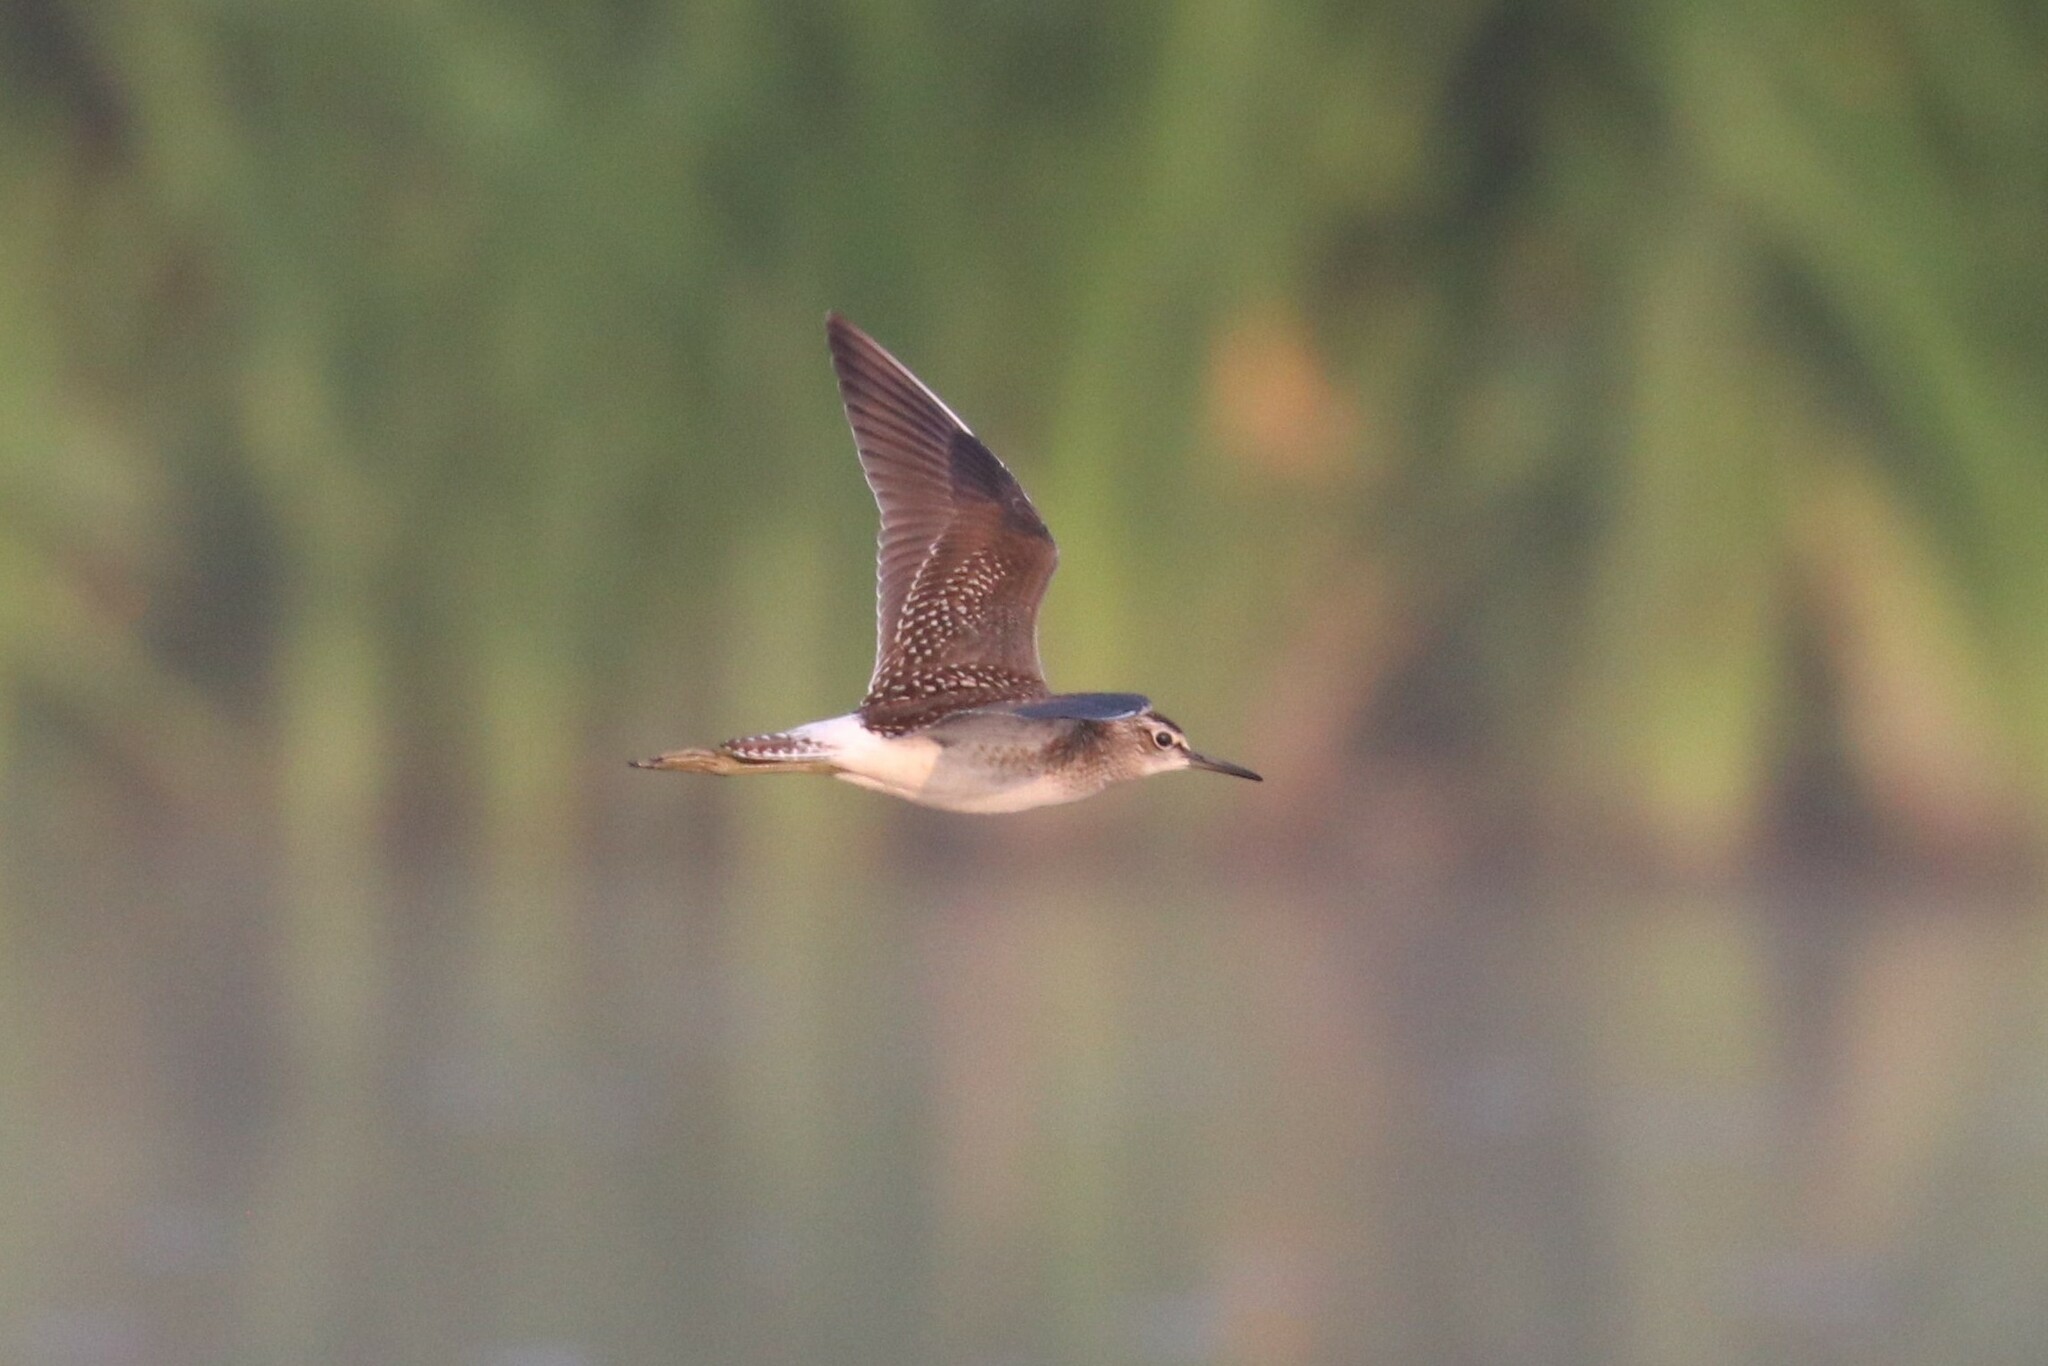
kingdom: Animalia
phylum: Chordata
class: Aves
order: Charadriiformes
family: Scolopacidae
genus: Tringa
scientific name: Tringa glareola
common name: Wood sandpiper
